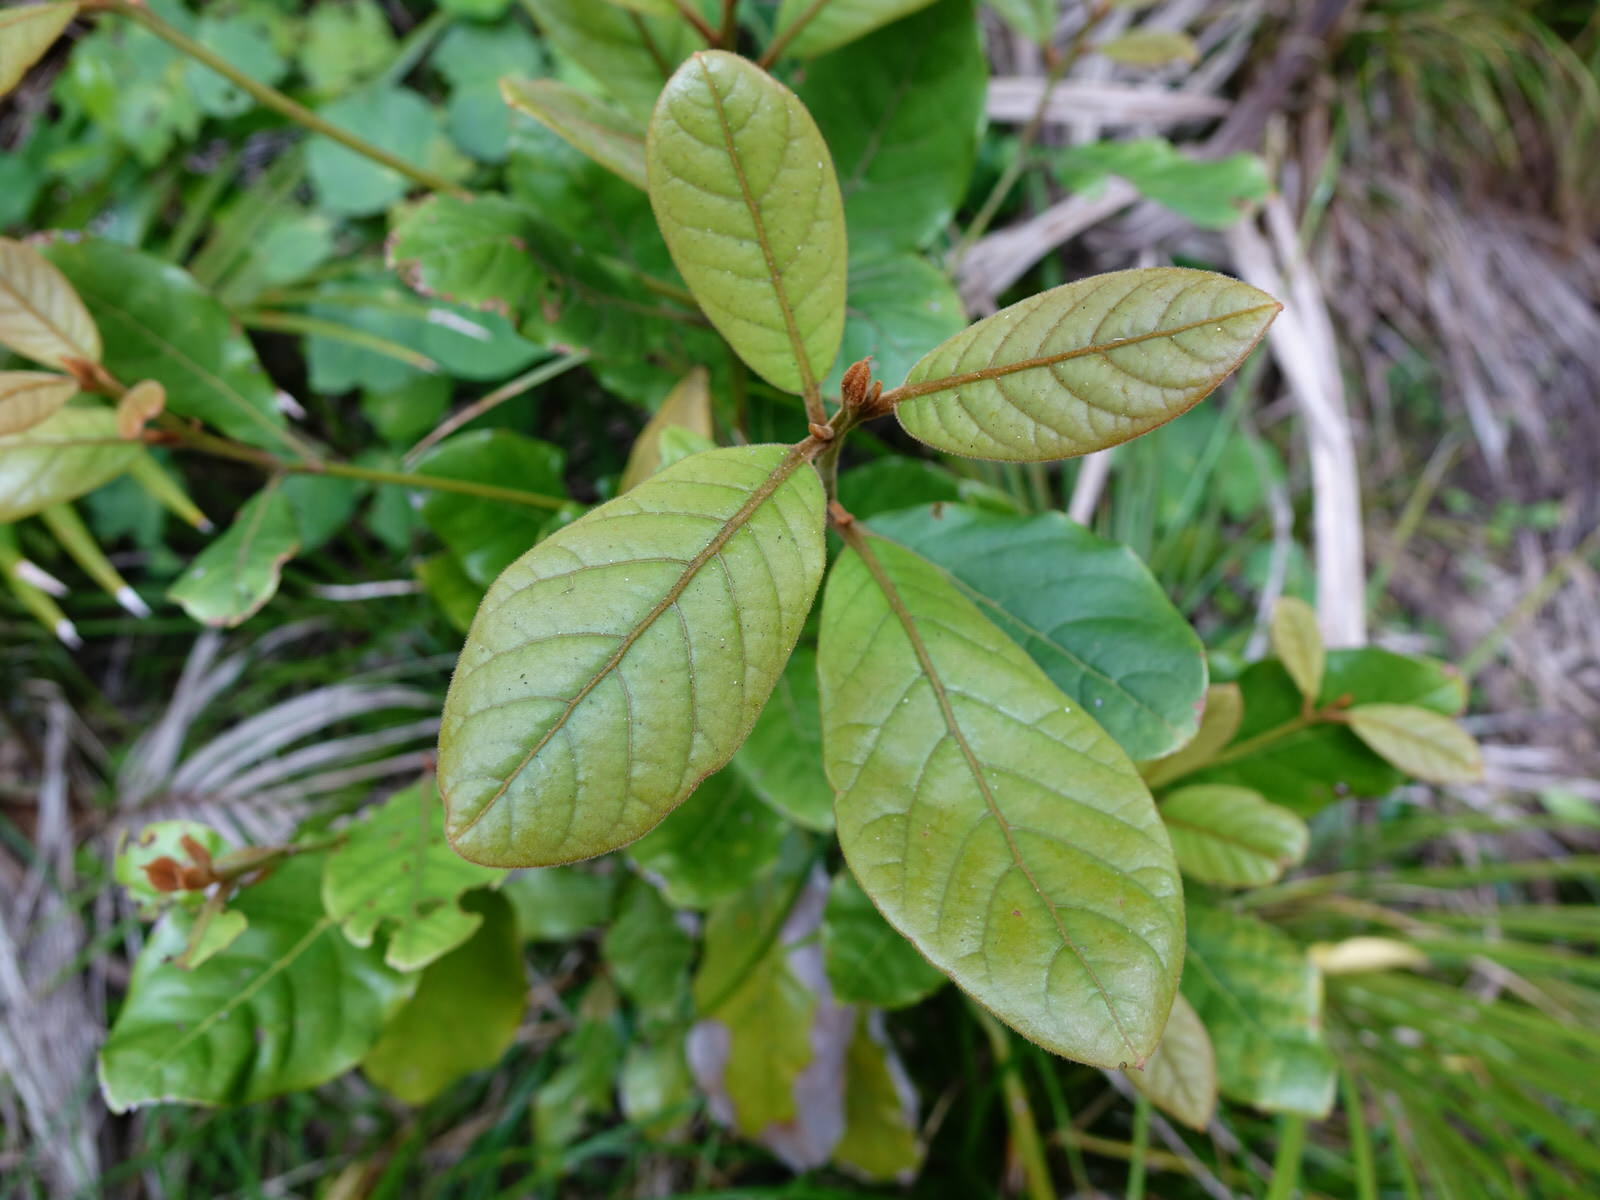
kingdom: Plantae
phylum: Tracheophyta
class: Magnoliopsida
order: Laurales
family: Lauraceae
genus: Beilschmiedia
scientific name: Beilschmiedia tarairi
